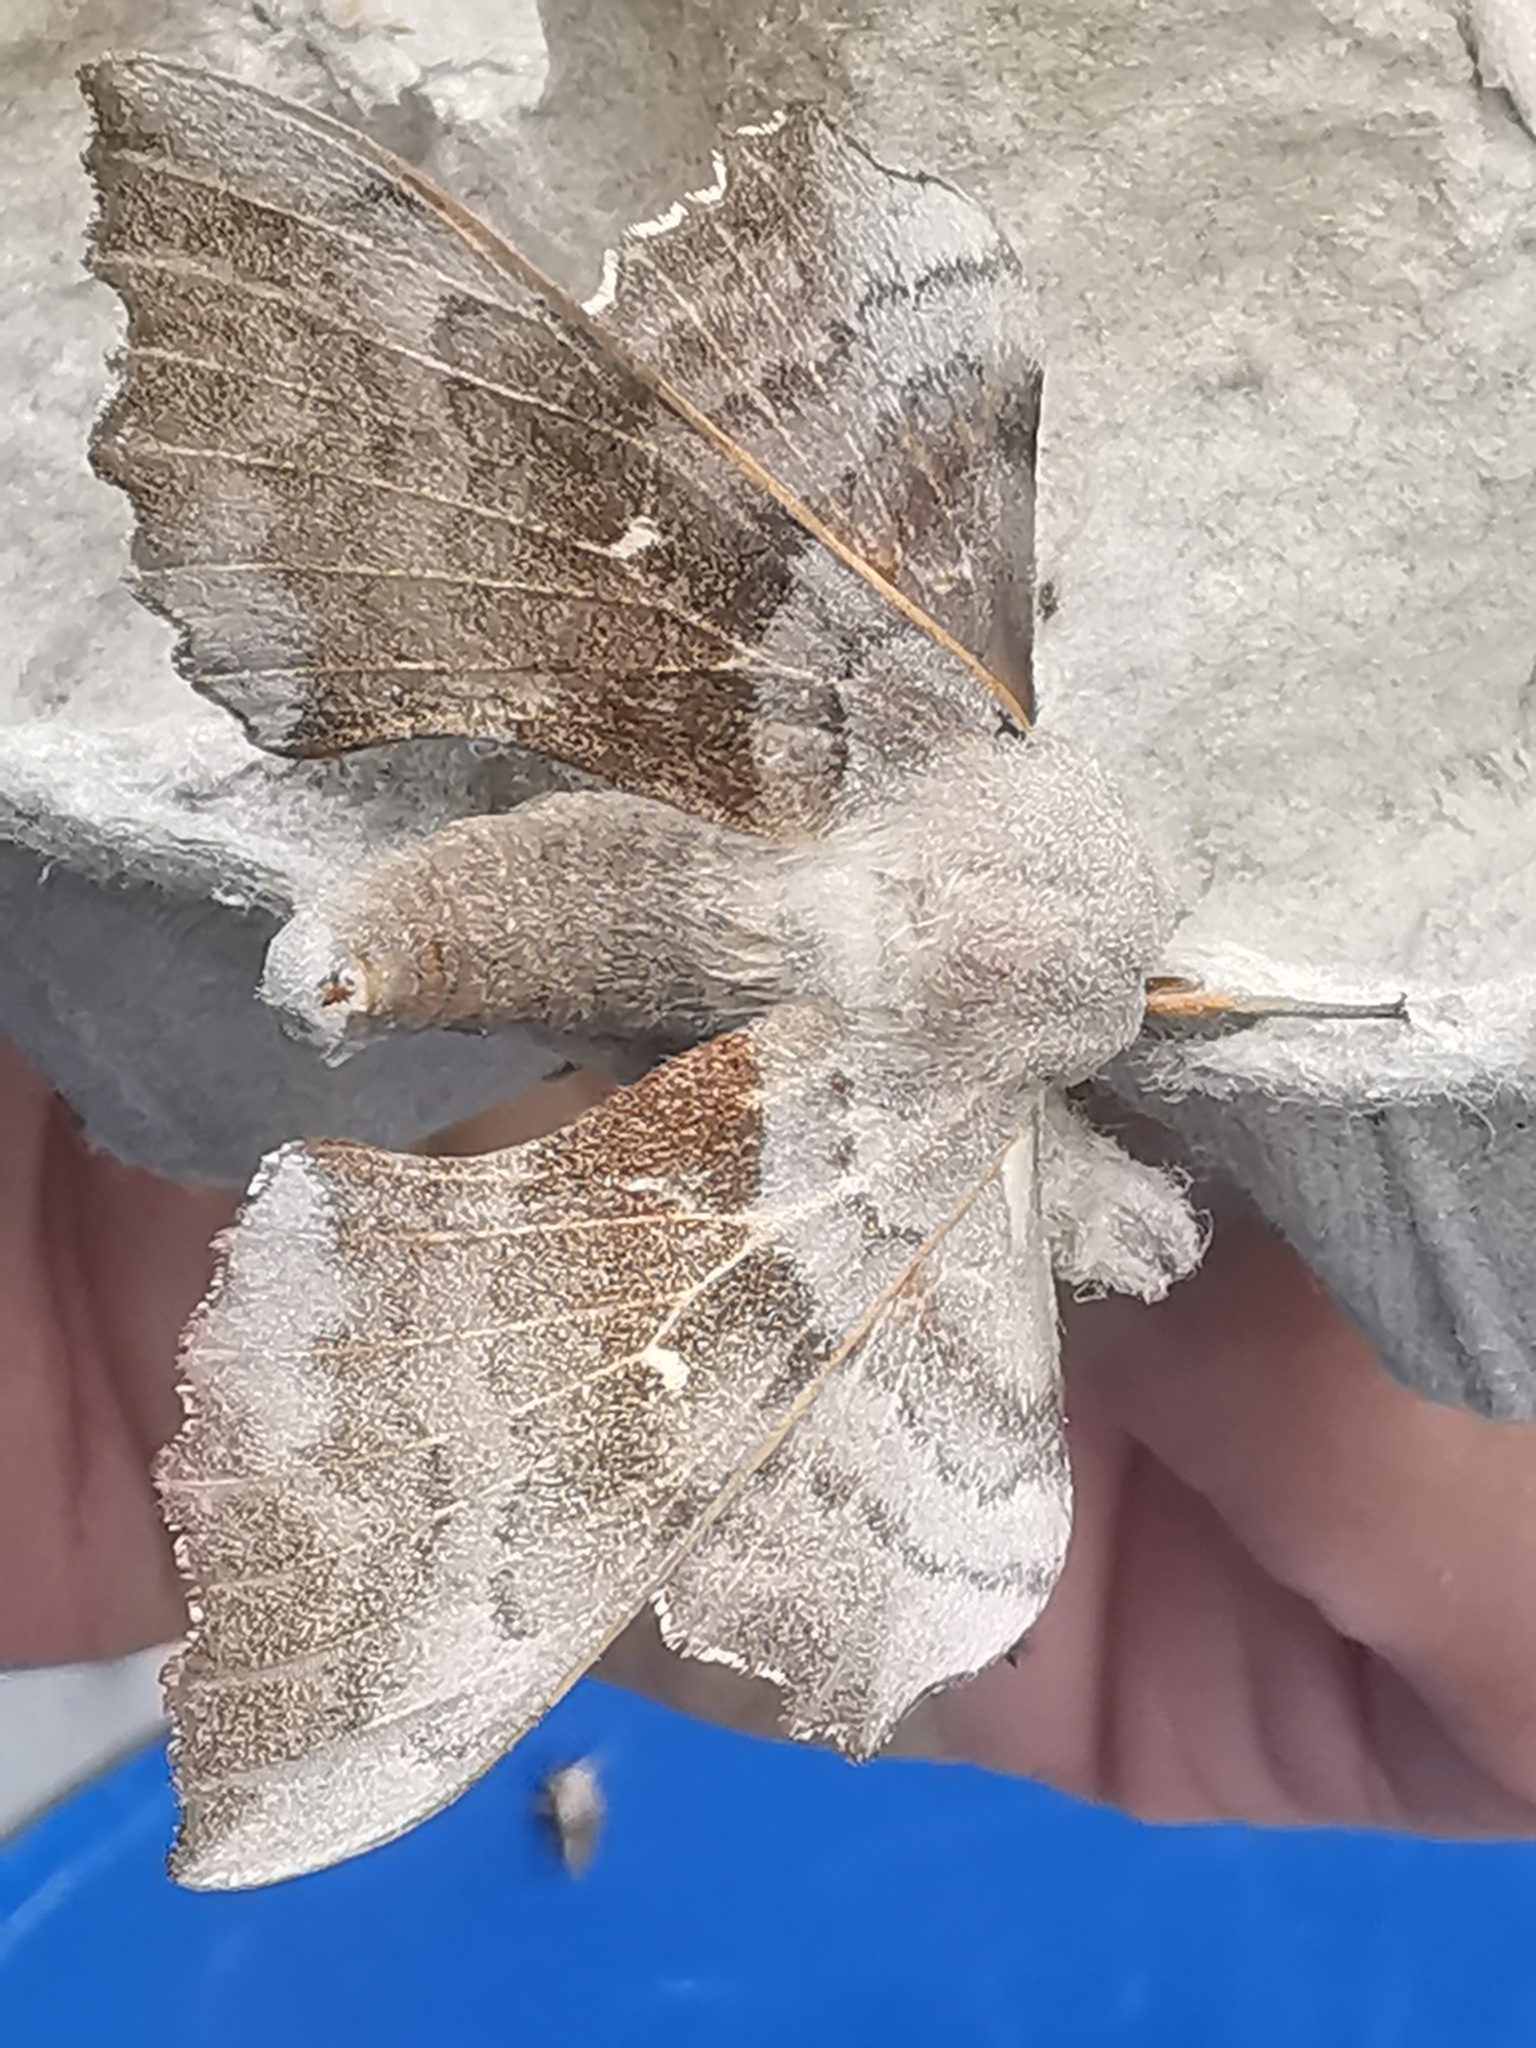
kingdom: Animalia
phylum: Arthropoda
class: Insecta
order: Lepidoptera
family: Sphingidae
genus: Laothoe
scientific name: Laothoe populi
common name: Poplar hawk-moth
